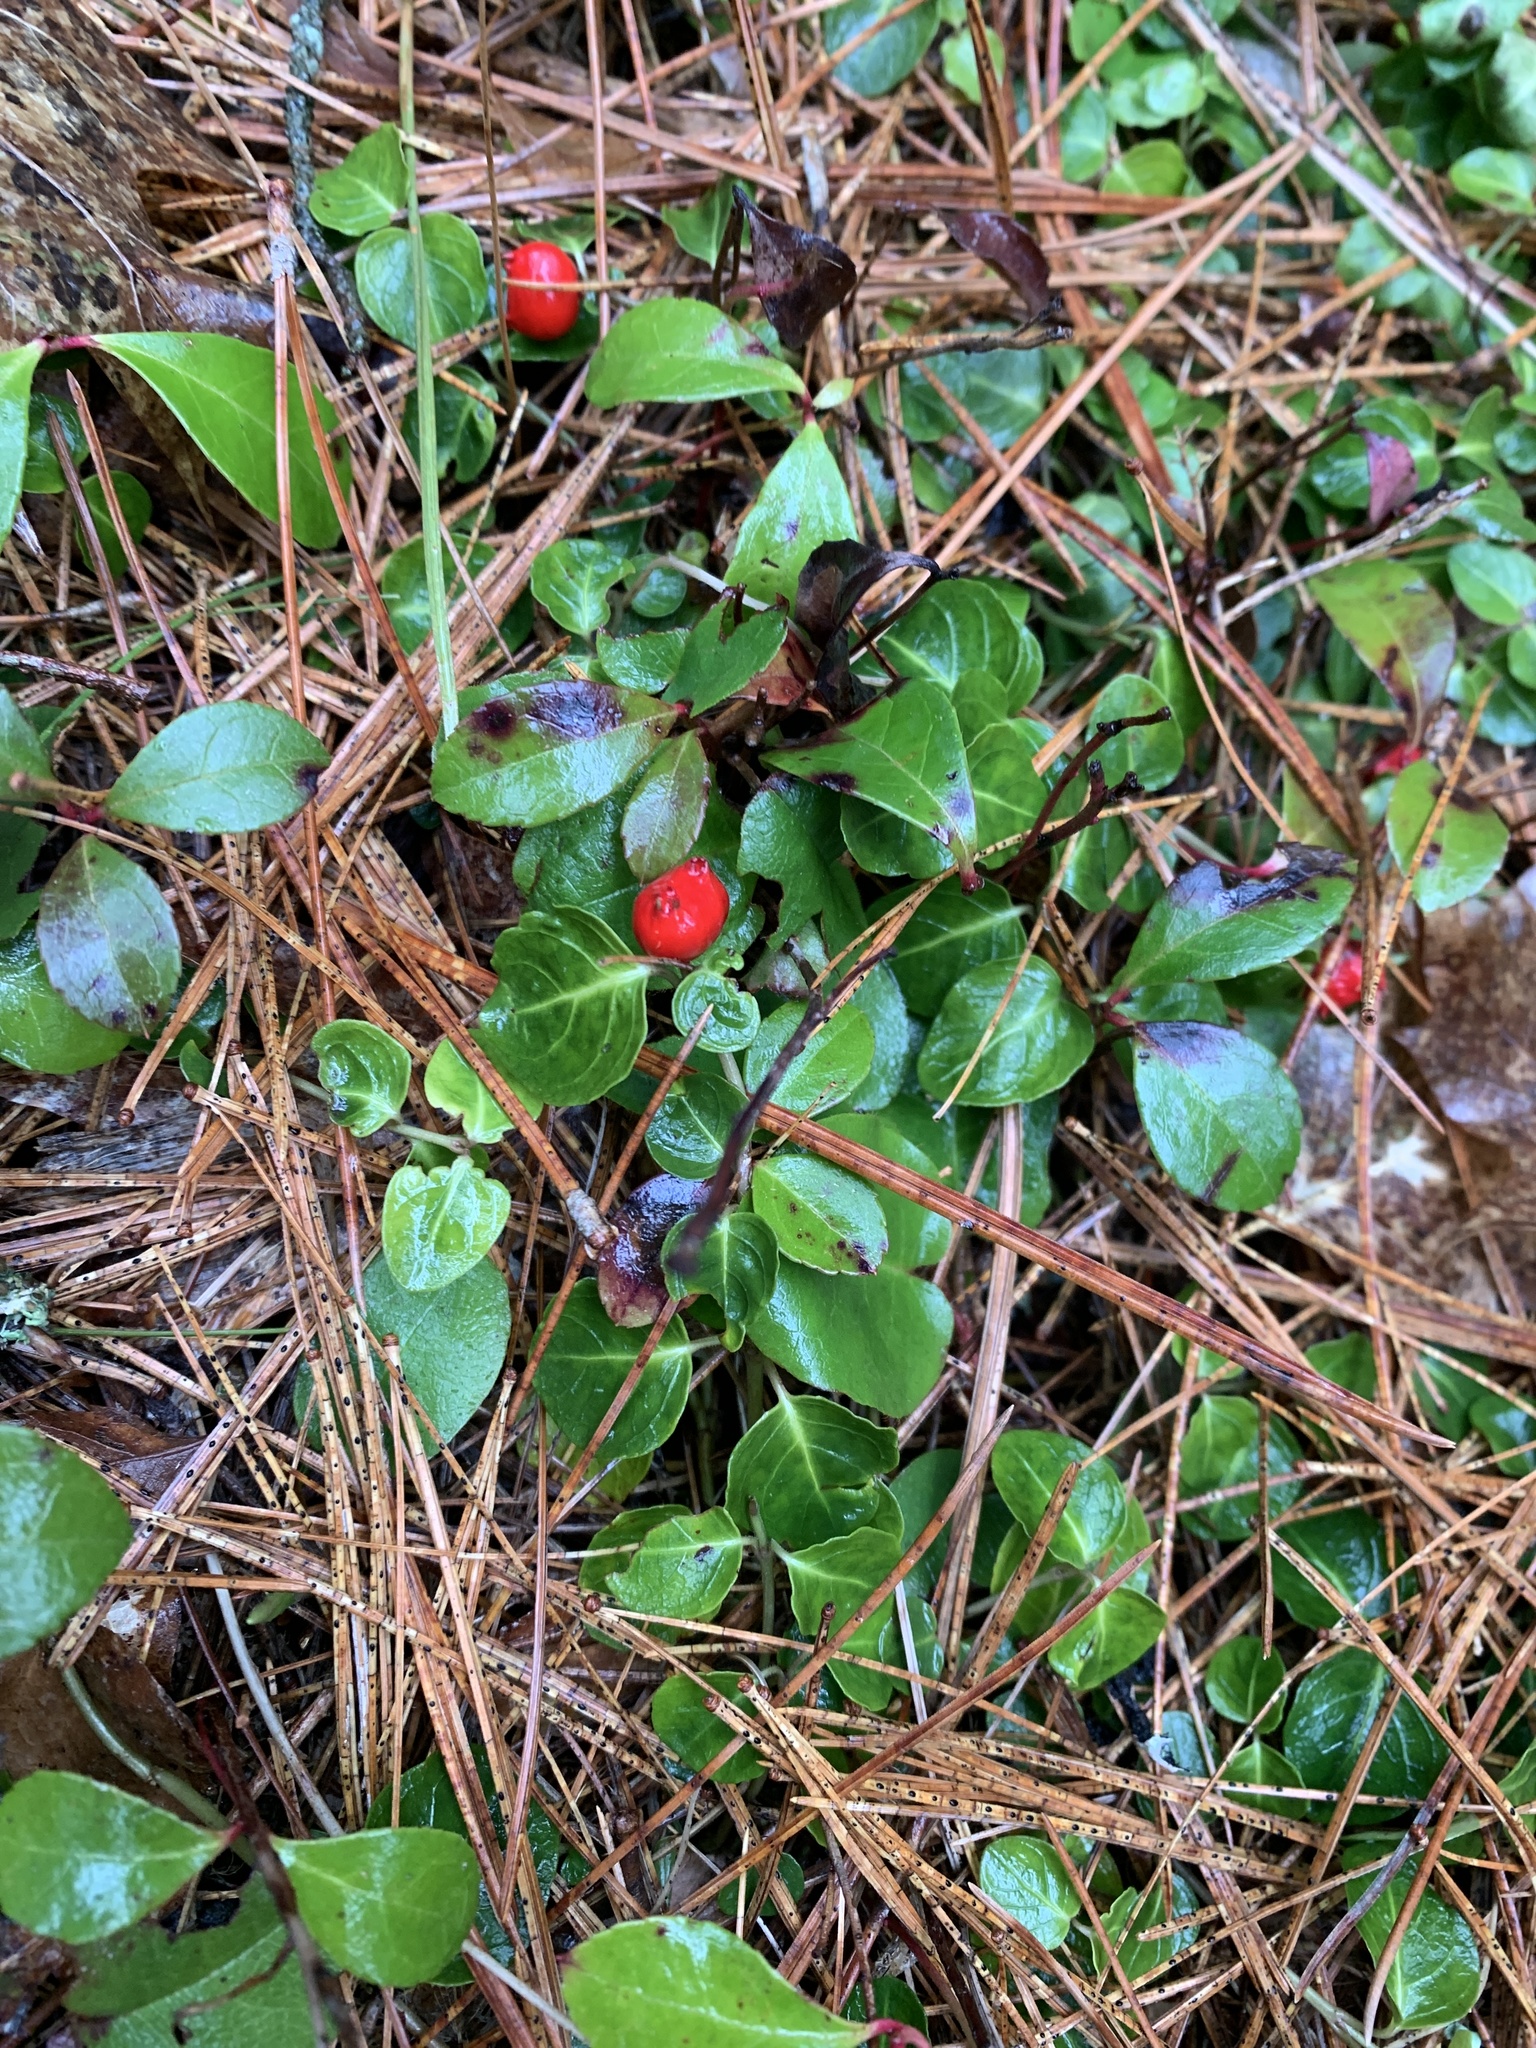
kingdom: Plantae
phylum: Tracheophyta
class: Magnoliopsida
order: Gentianales
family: Rubiaceae
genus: Mitchella
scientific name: Mitchella repens
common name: Partridge-berry
